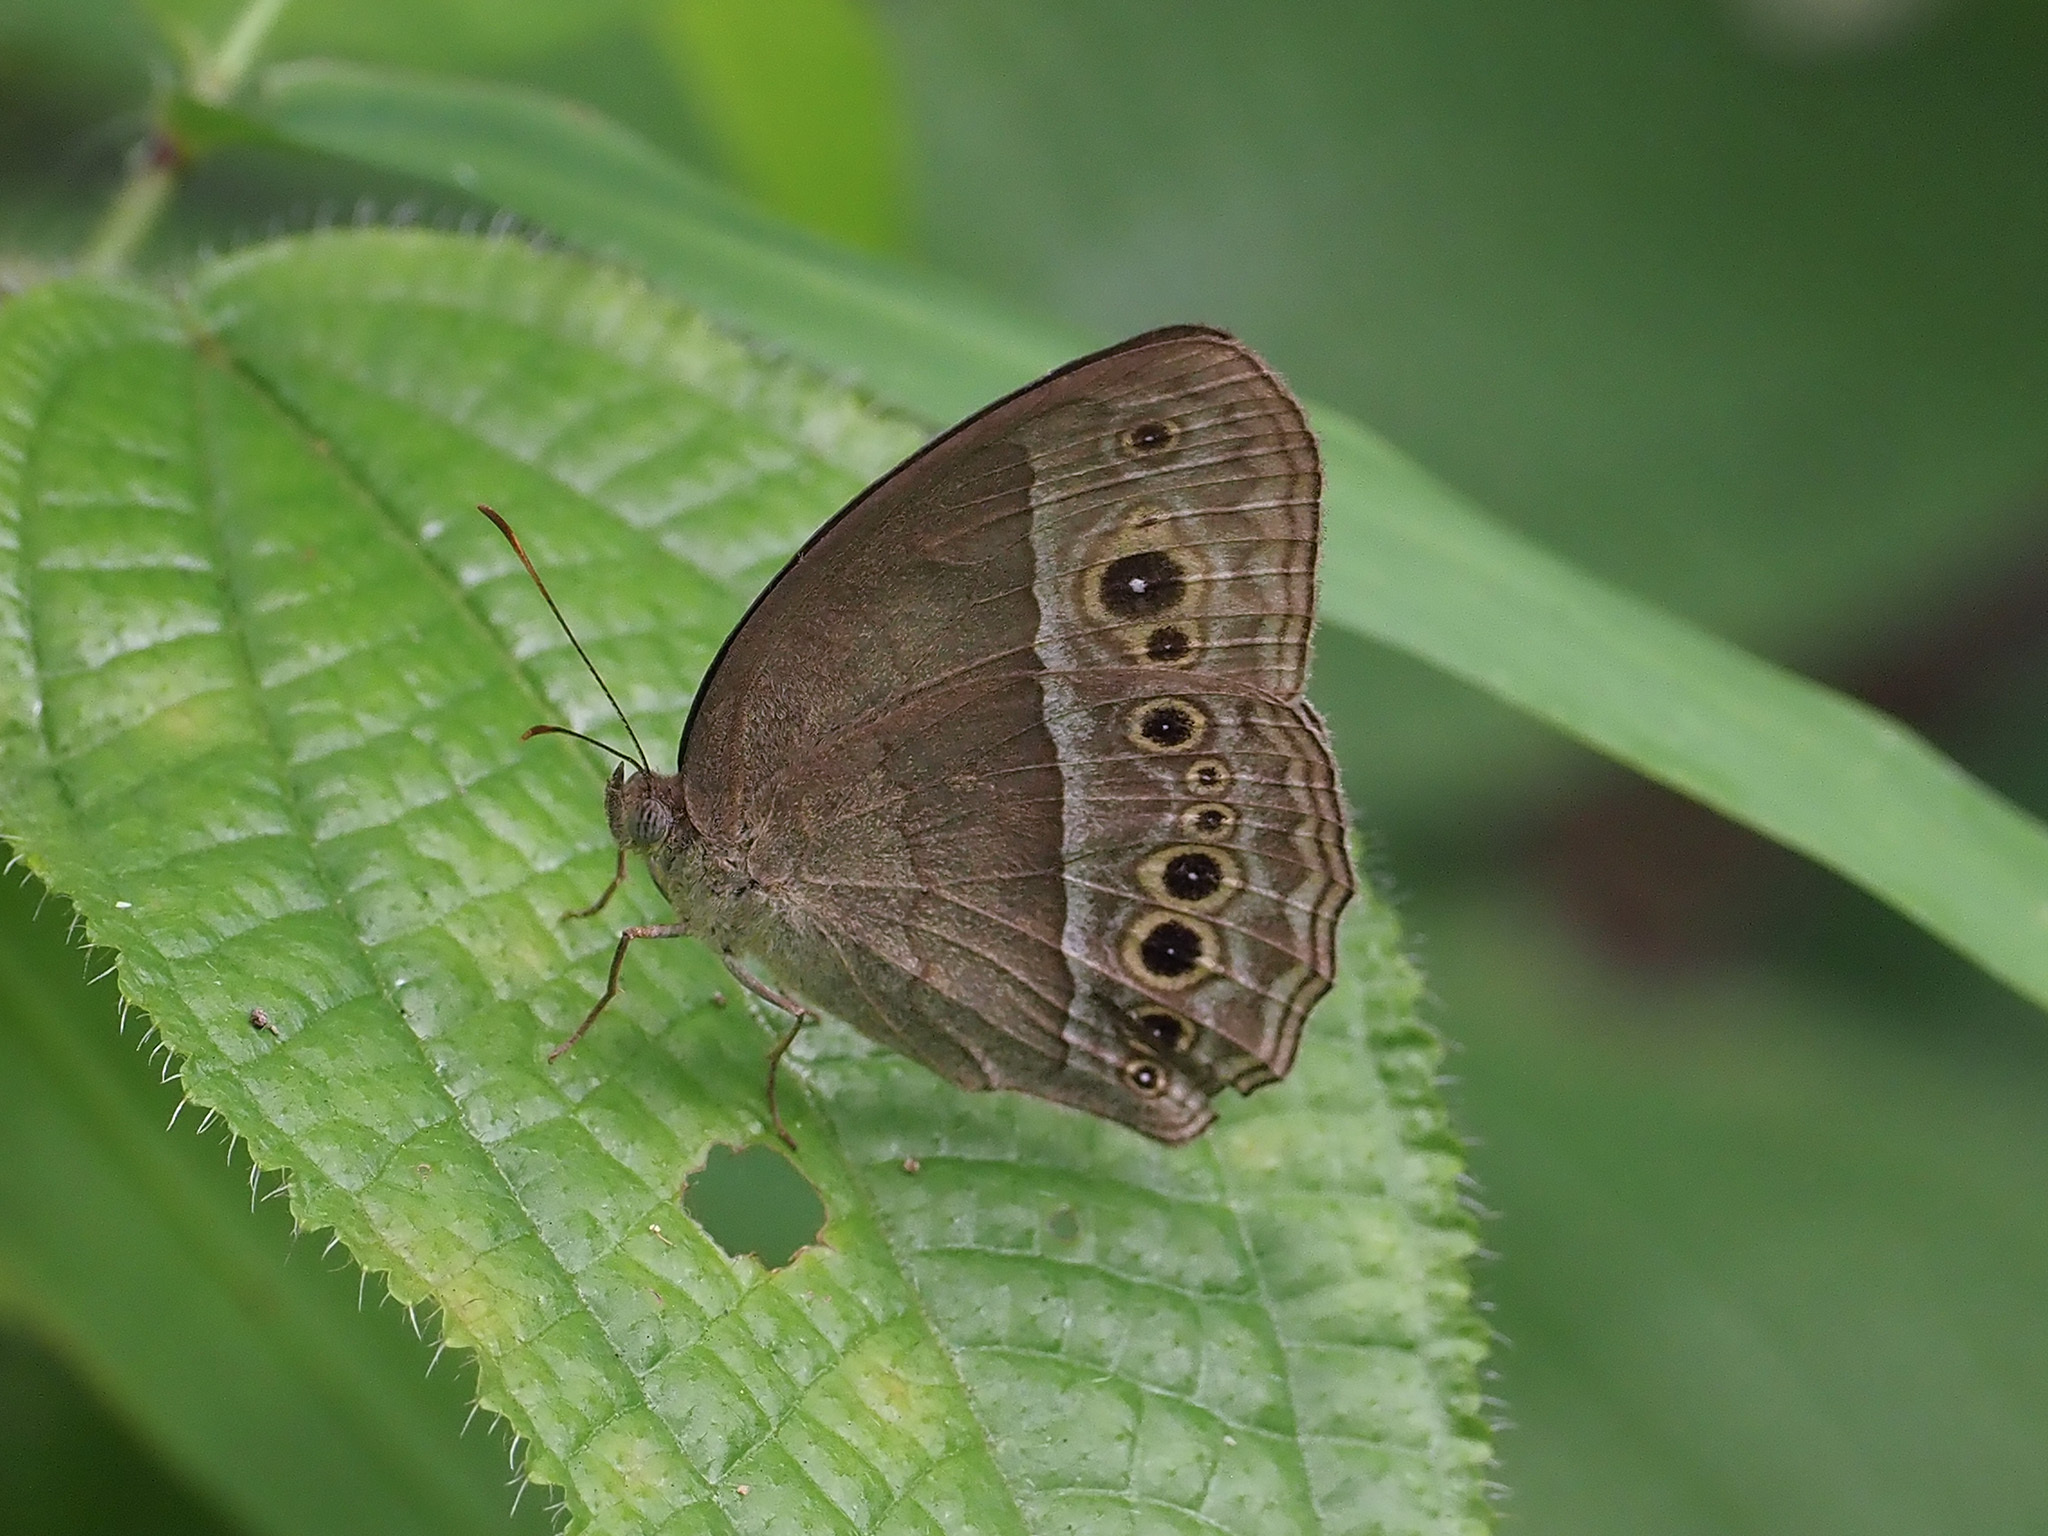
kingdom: Animalia
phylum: Arthropoda
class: Insecta
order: Lepidoptera
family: Nymphalidae
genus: Mycalesis
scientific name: Mycalesis perseoides
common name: Burmese bushbrown
